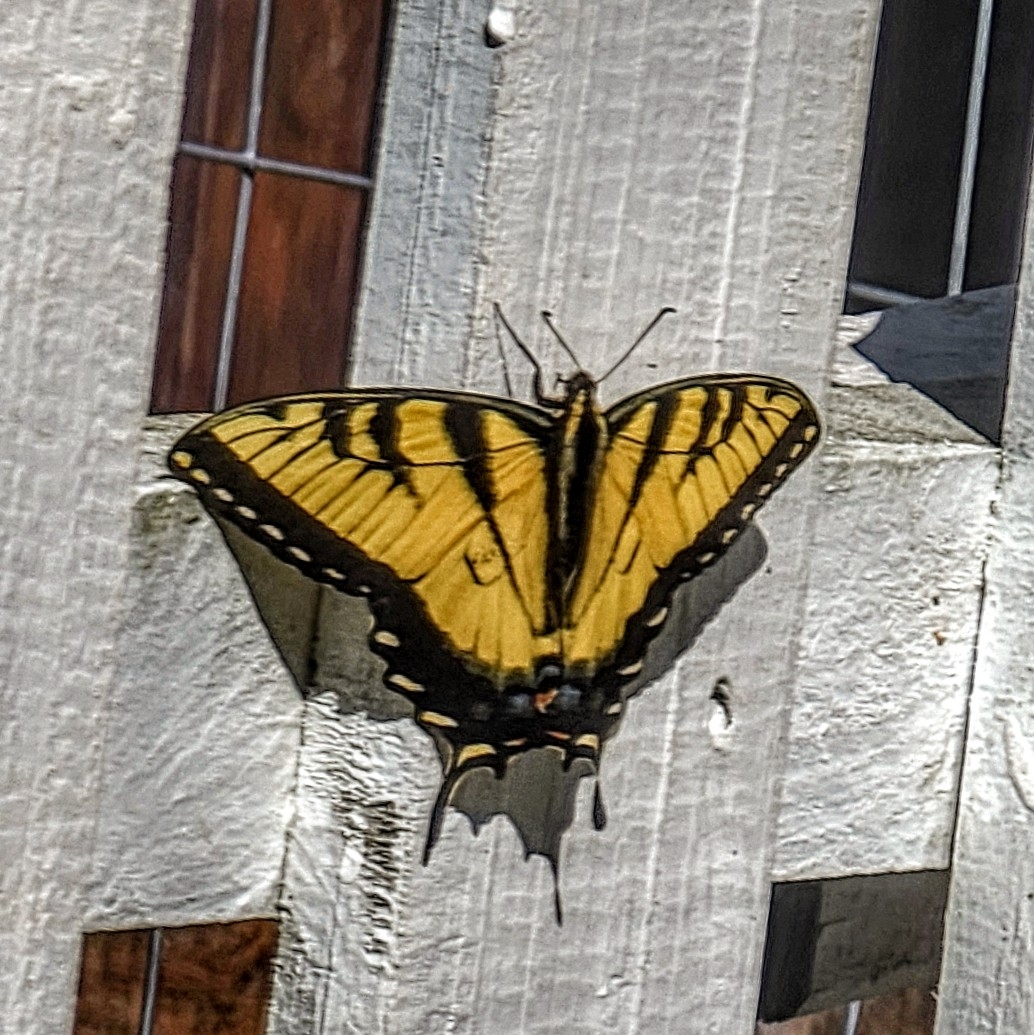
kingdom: Animalia
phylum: Arthropoda
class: Insecta
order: Lepidoptera
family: Papilionidae
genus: Papilio
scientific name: Papilio glaucus
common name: Tiger swallowtail
